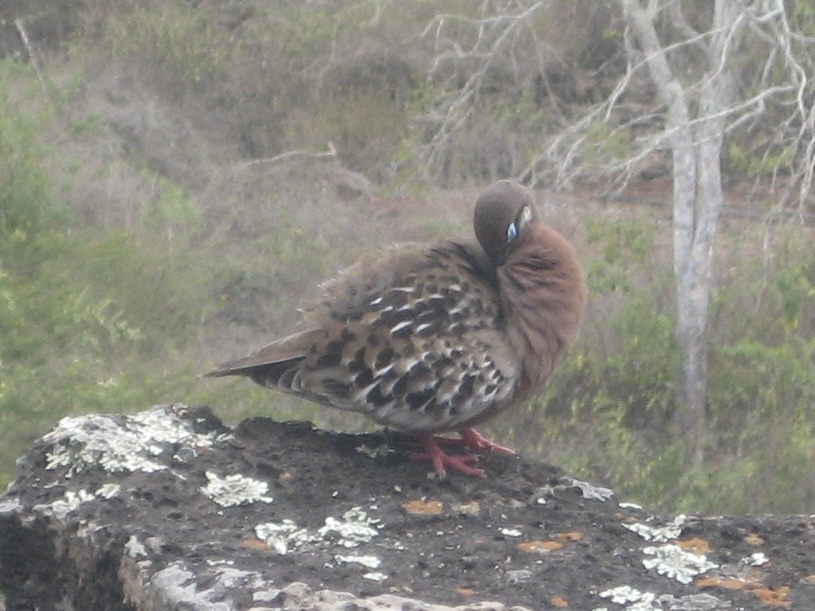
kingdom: Animalia
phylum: Chordata
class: Aves
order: Columbiformes
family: Columbidae
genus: Zenaida
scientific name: Zenaida galapagoensis
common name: Galapagos dove
